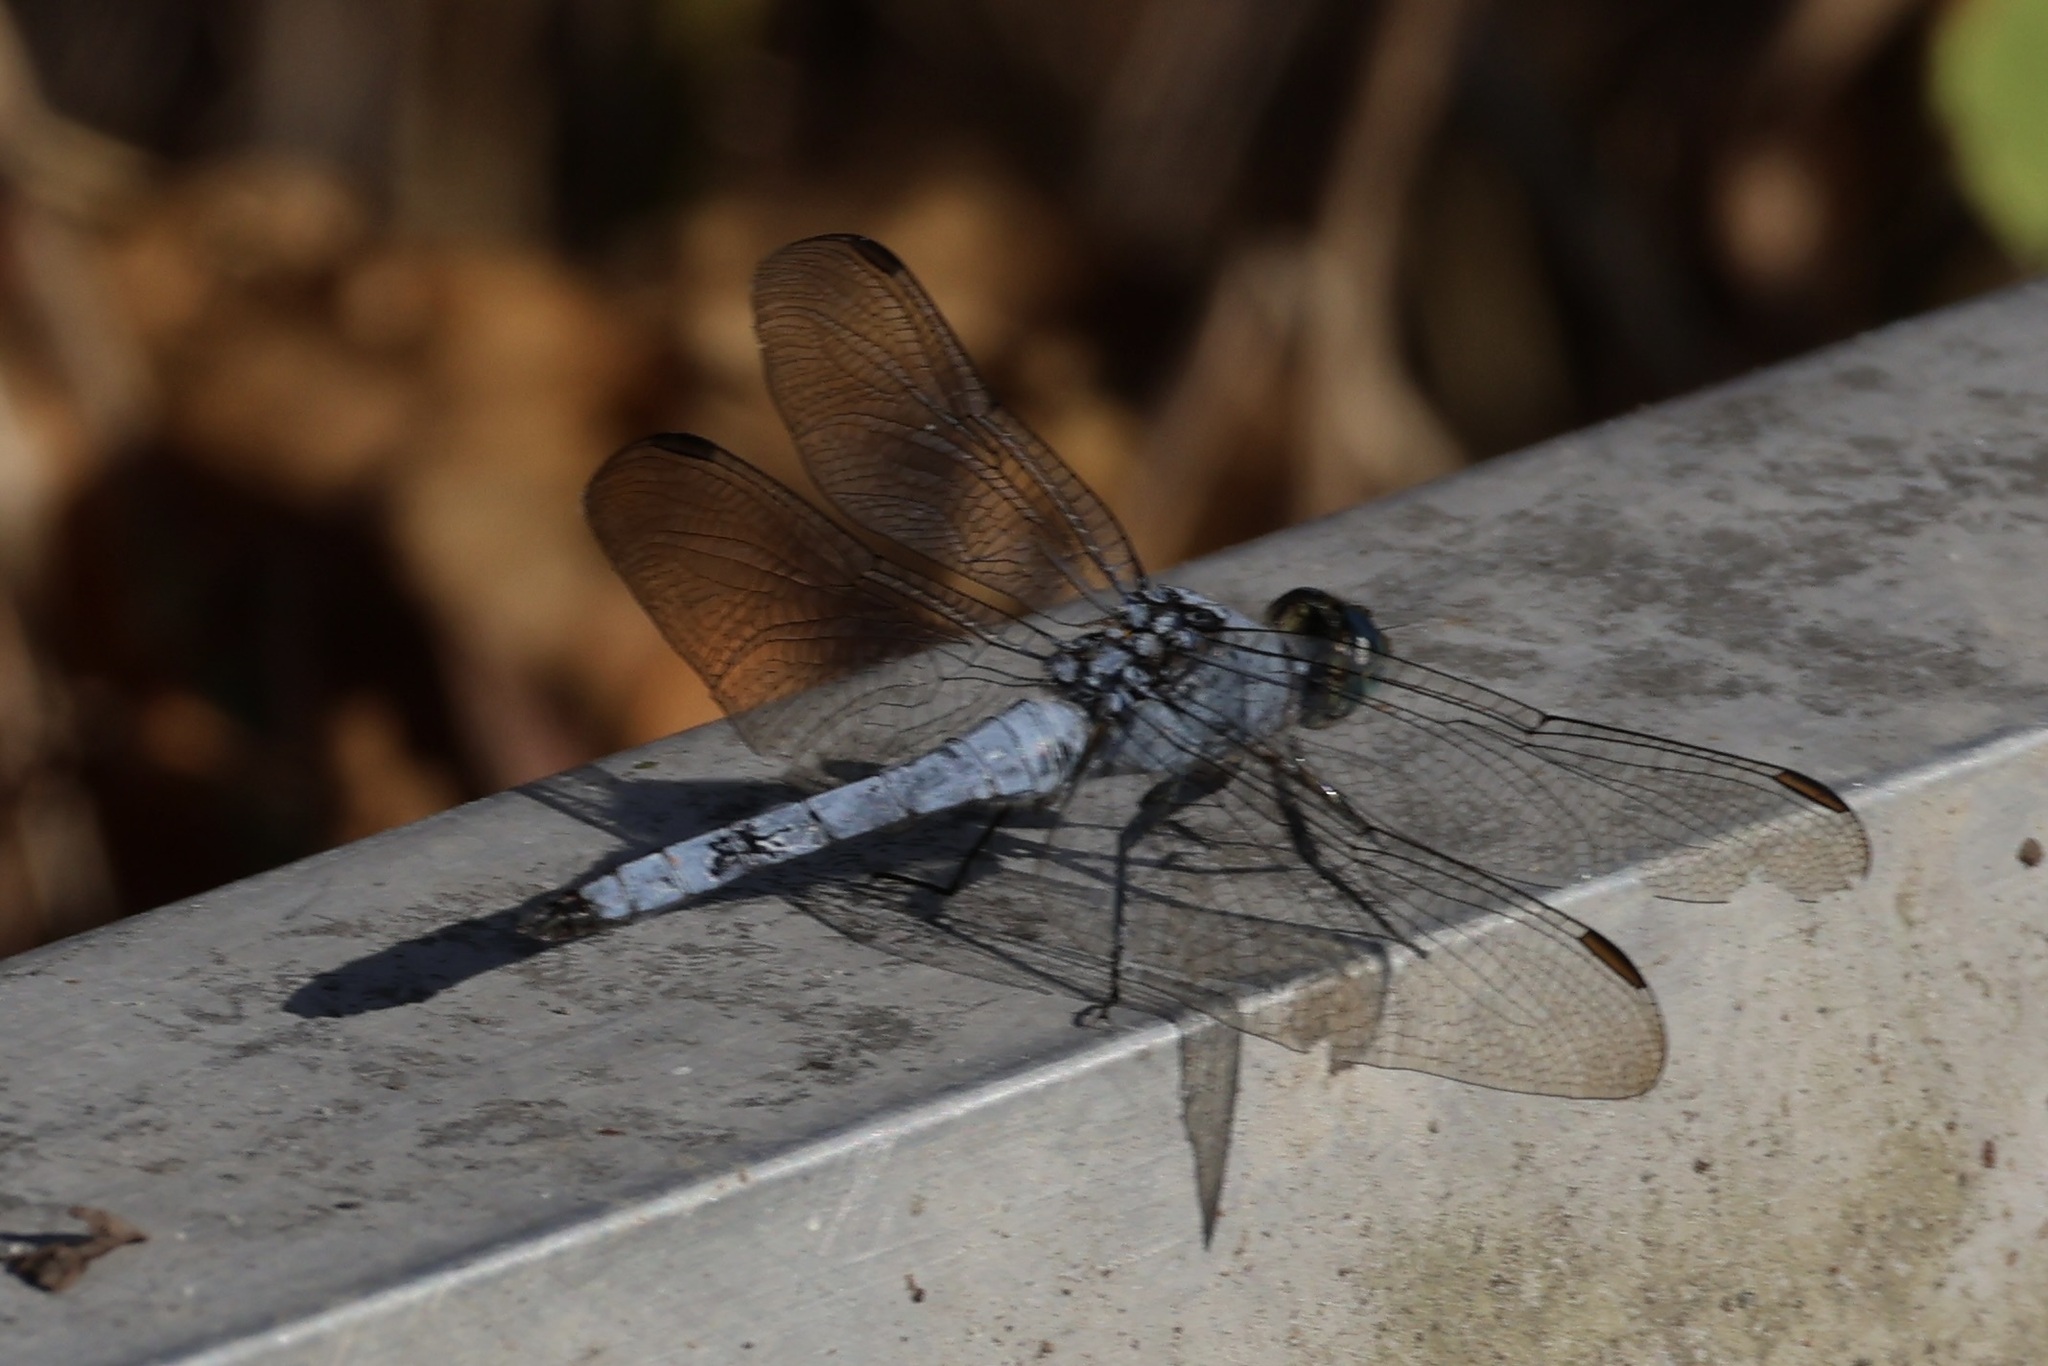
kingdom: Animalia
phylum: Arthropoda
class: Insecta
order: Odonata
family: Libellulidae
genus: Erythemis
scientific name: Erythemis collocata
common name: Western pondhawk
